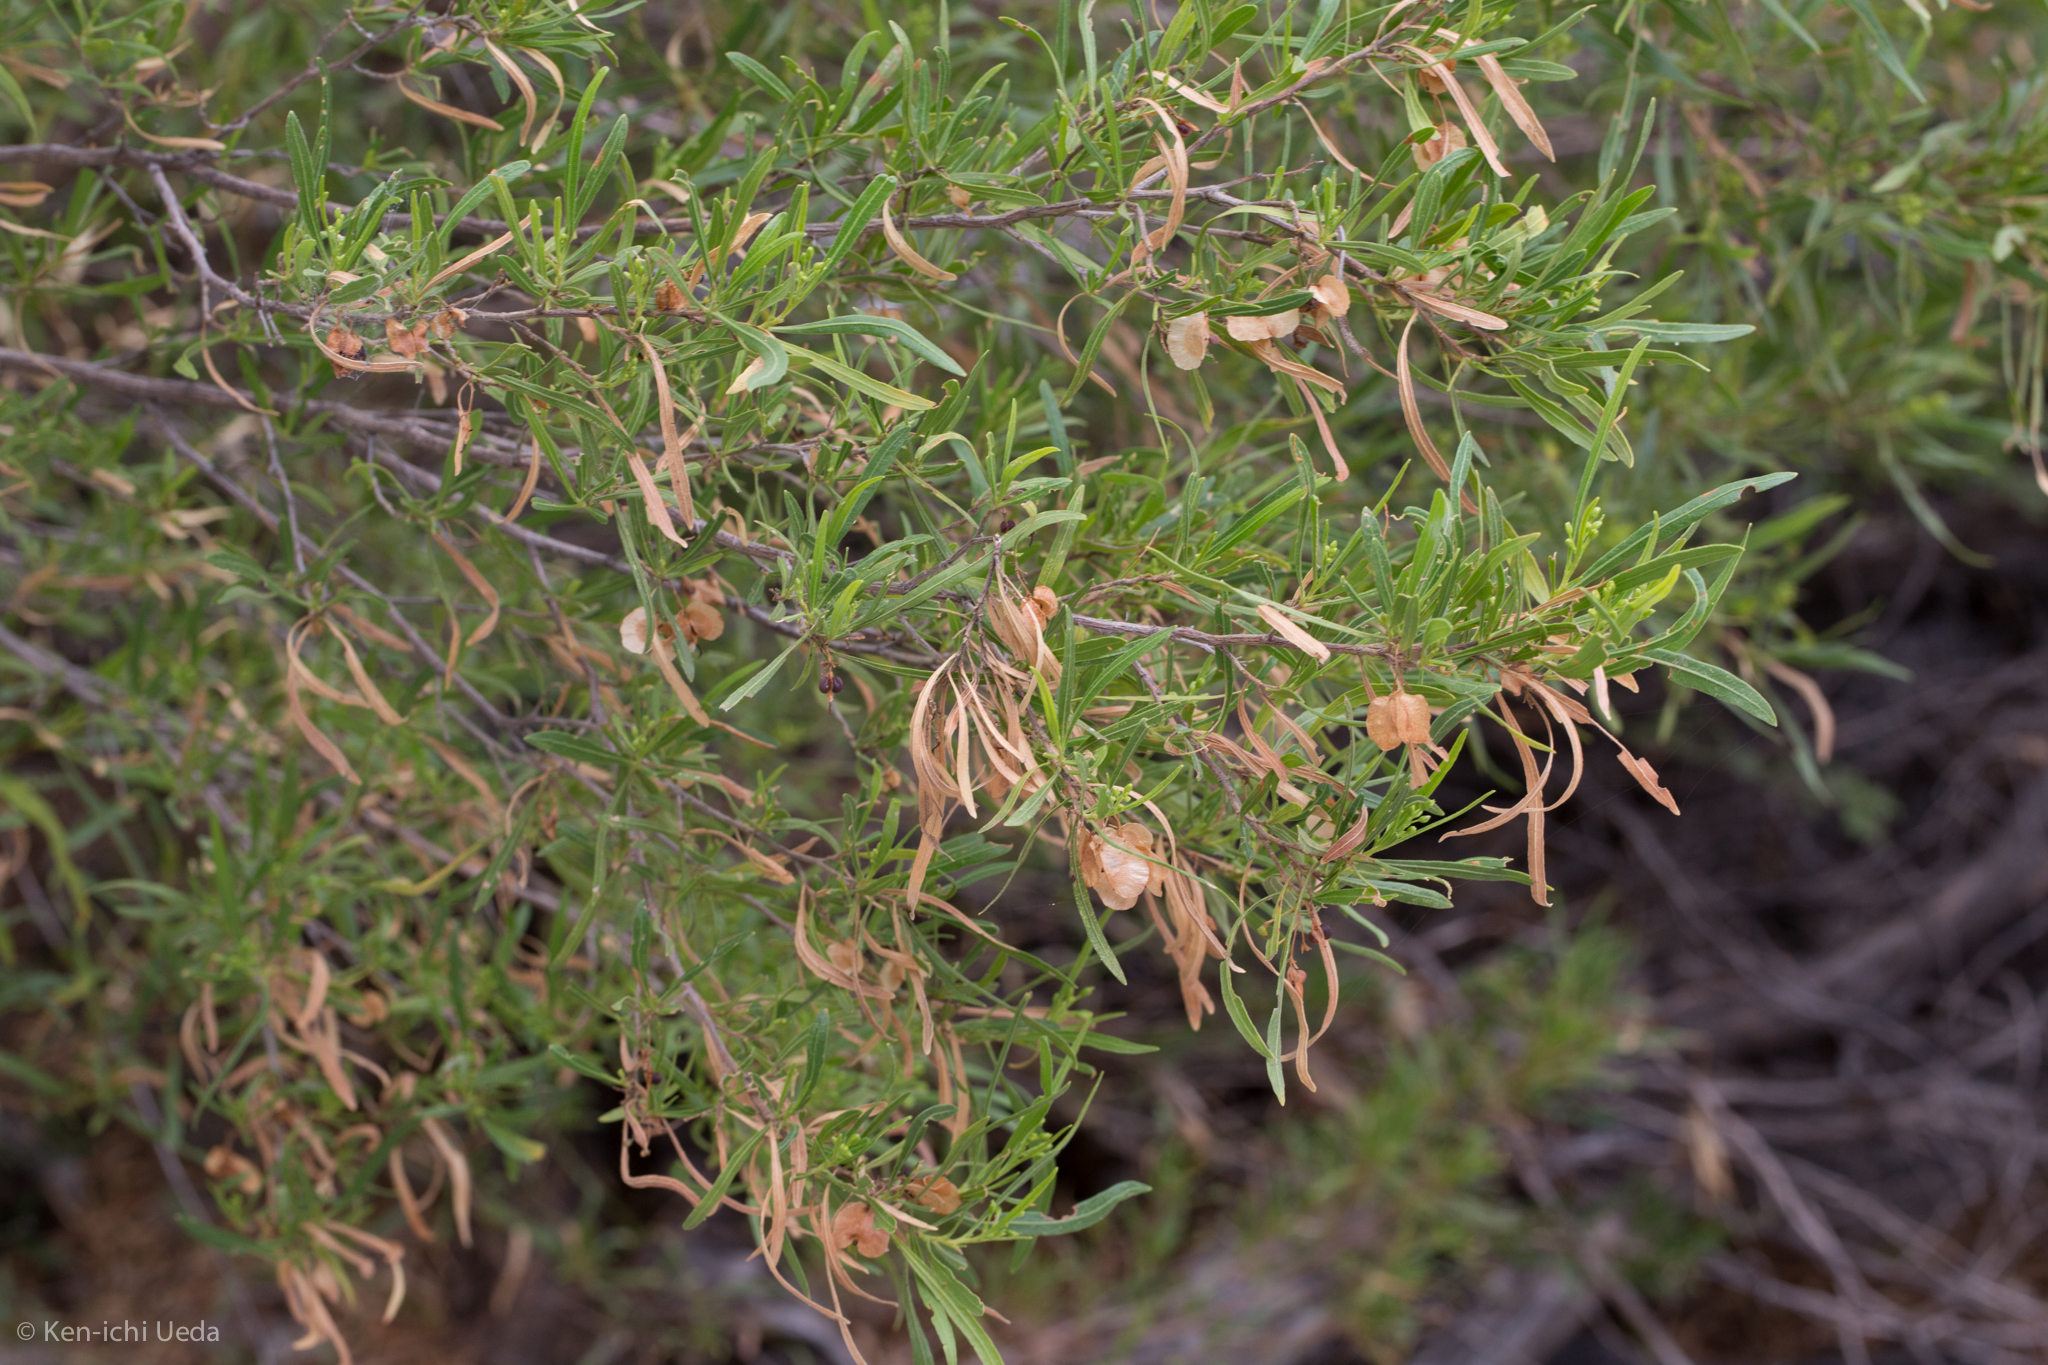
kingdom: Plantae
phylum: Tracheophyta
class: Magnoliopsida
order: Sapindales
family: Sapindaceae
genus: Dodonaea
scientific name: Dodonaea viscosa
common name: Hopbush
